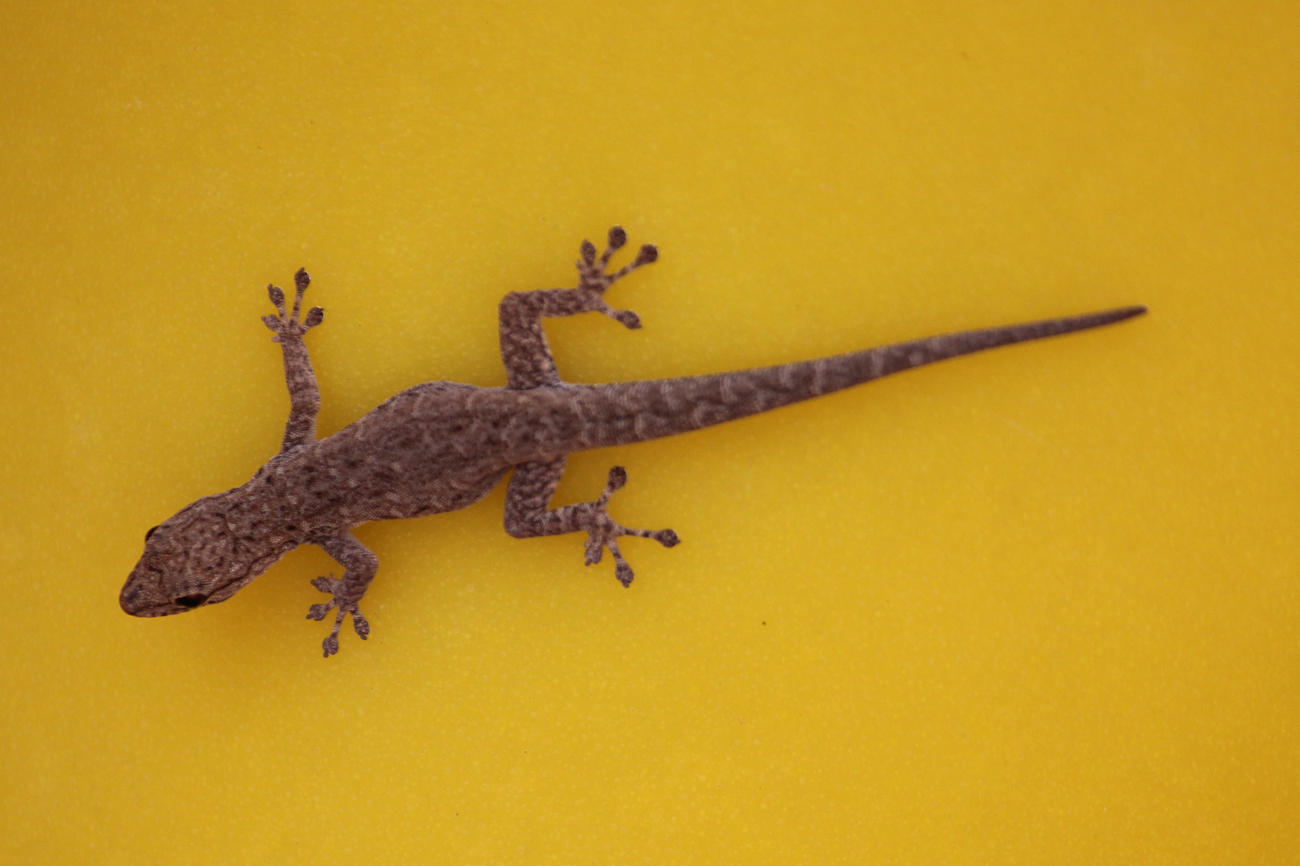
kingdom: Animalia
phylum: Chordata
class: Squamata
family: Gekkonidae
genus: Lygodactylus
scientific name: Lygodactylus bradfieldi
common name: Bradfield's dwarf gecko
